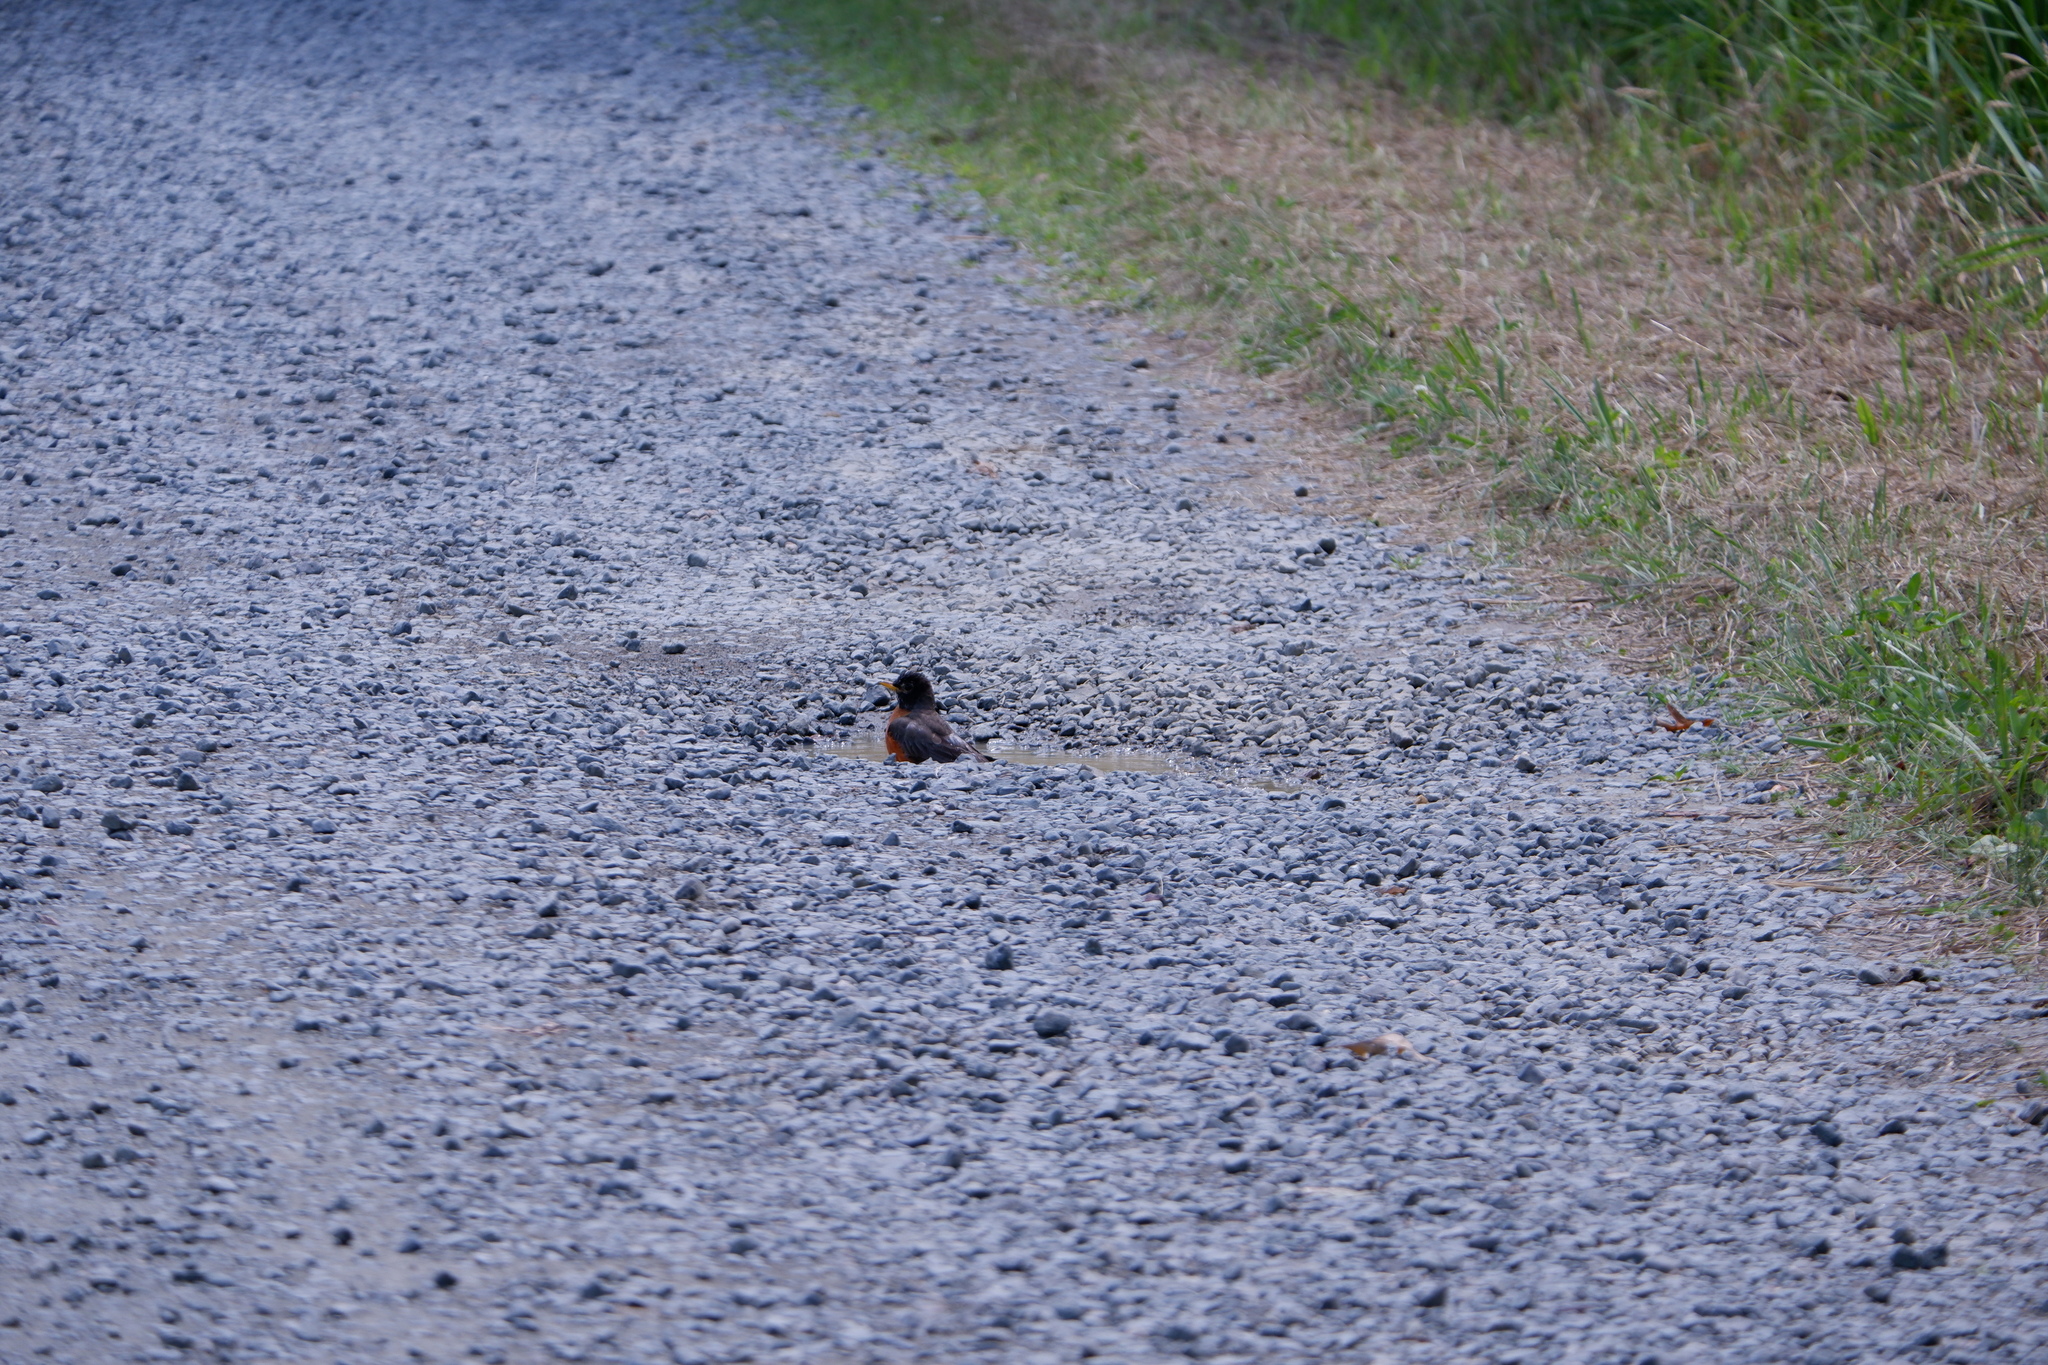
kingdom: Animalia
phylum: Chordata
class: Aves
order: Passeriformes
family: Turdidae
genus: Turdus
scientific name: Turdus migratorius
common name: American robin
